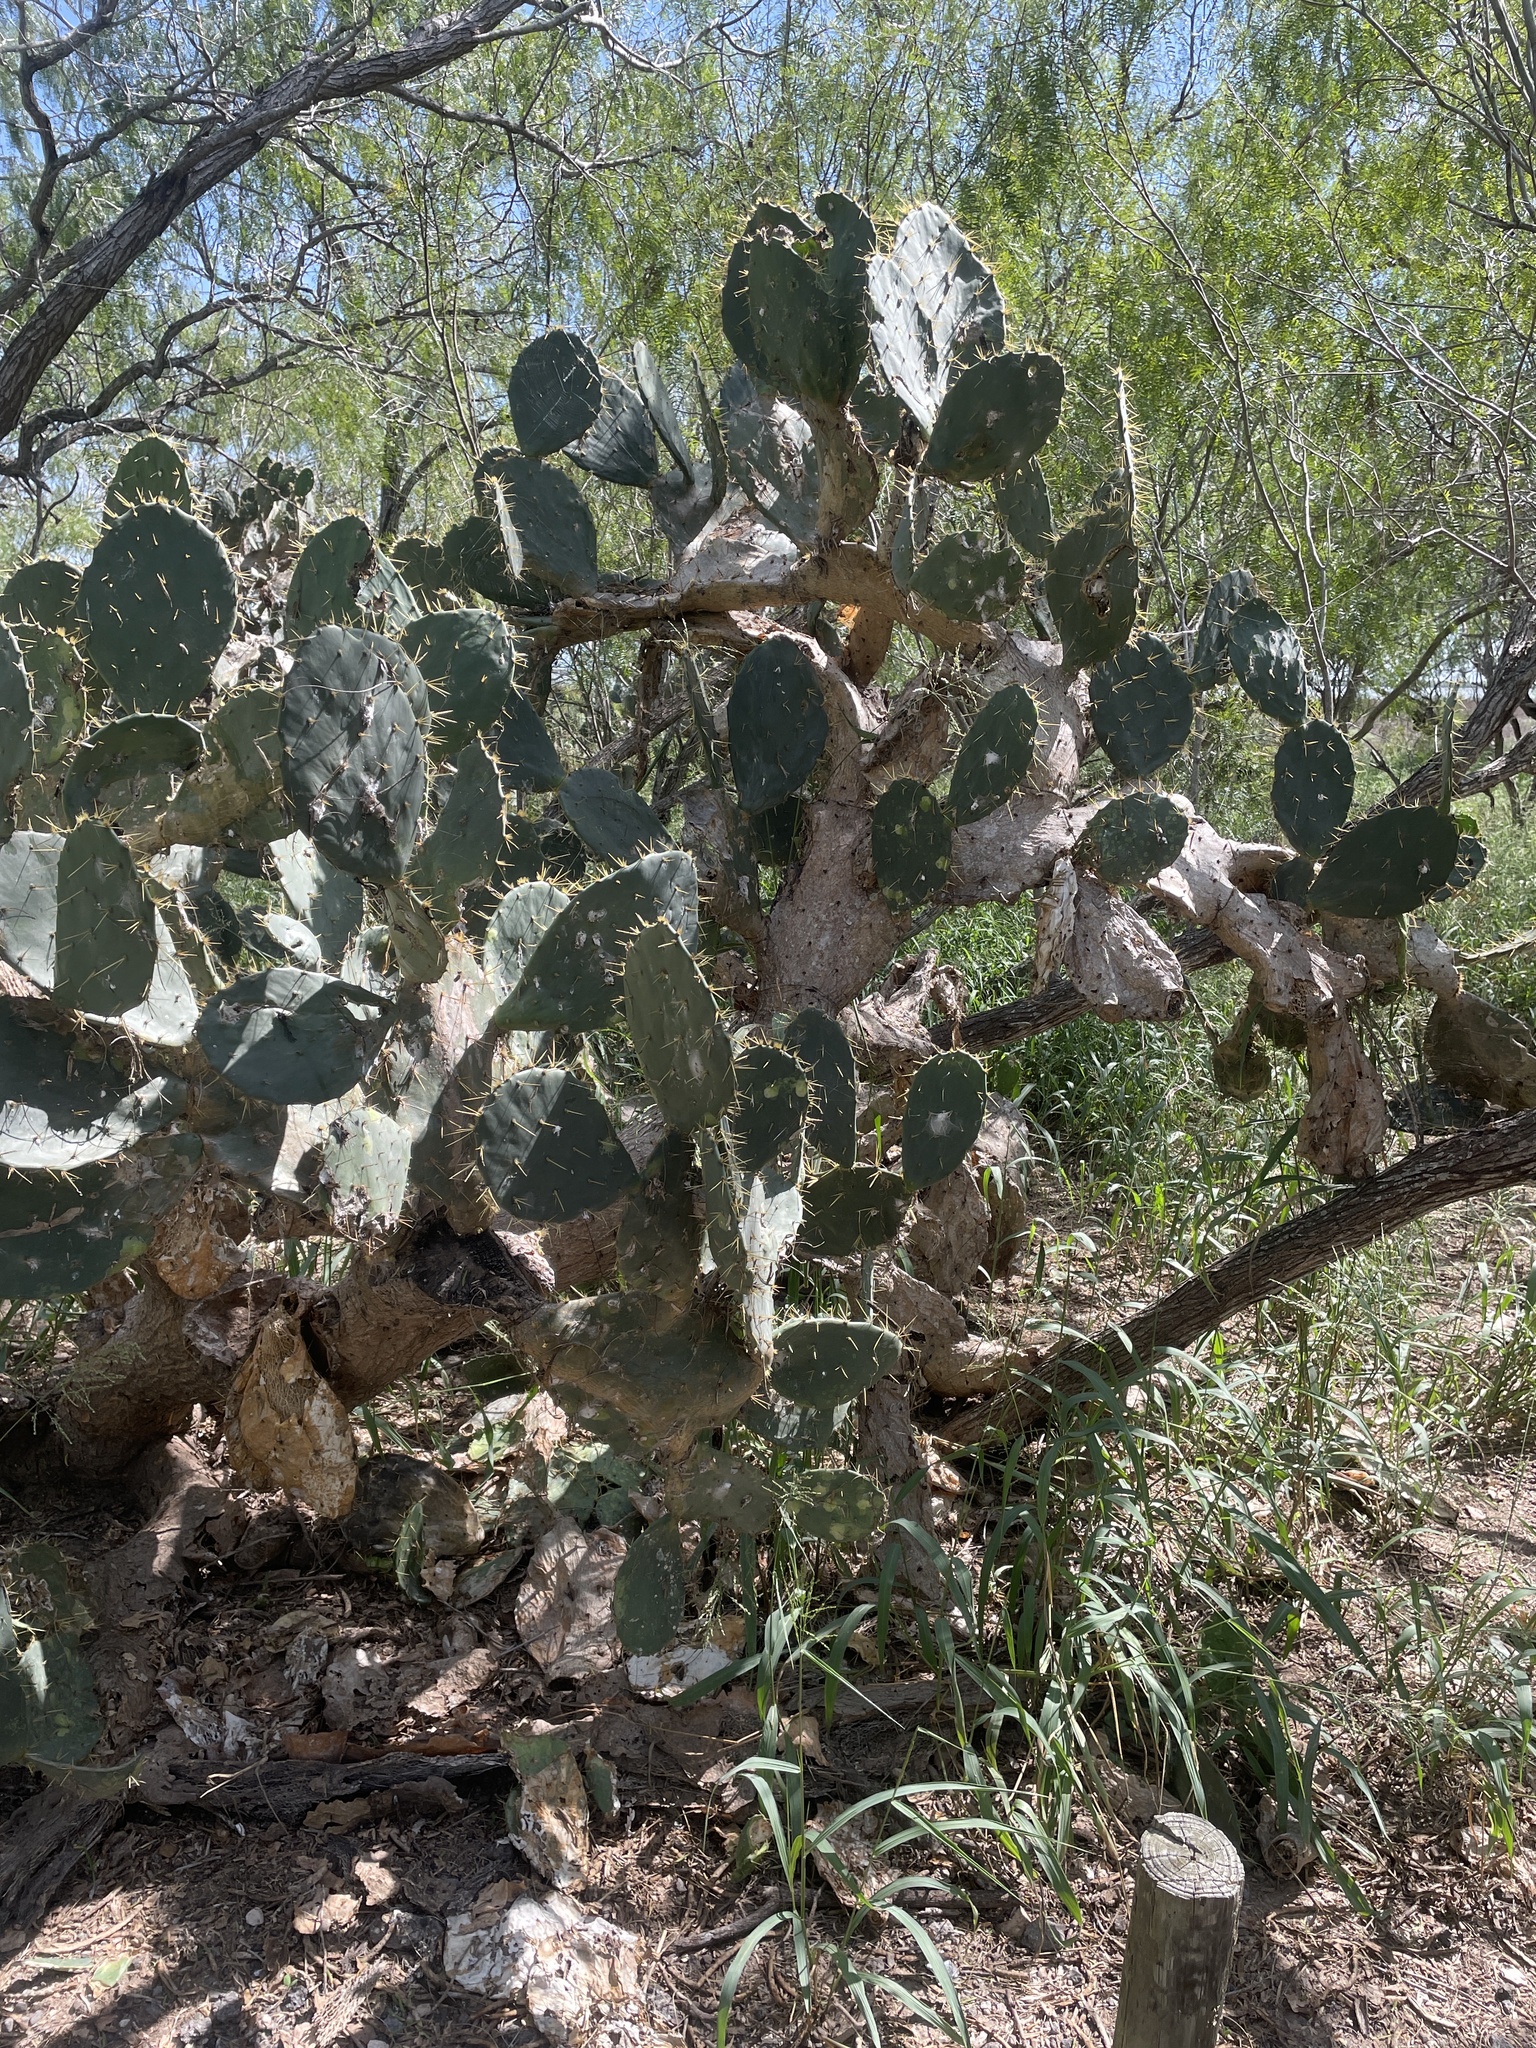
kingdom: Plantae
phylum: Tracheophyta
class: Magnoliopsida
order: Caryophyllales
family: Cactaceae
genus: Opuntia
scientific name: Opuntia engelmannii
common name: Cactus-apple
